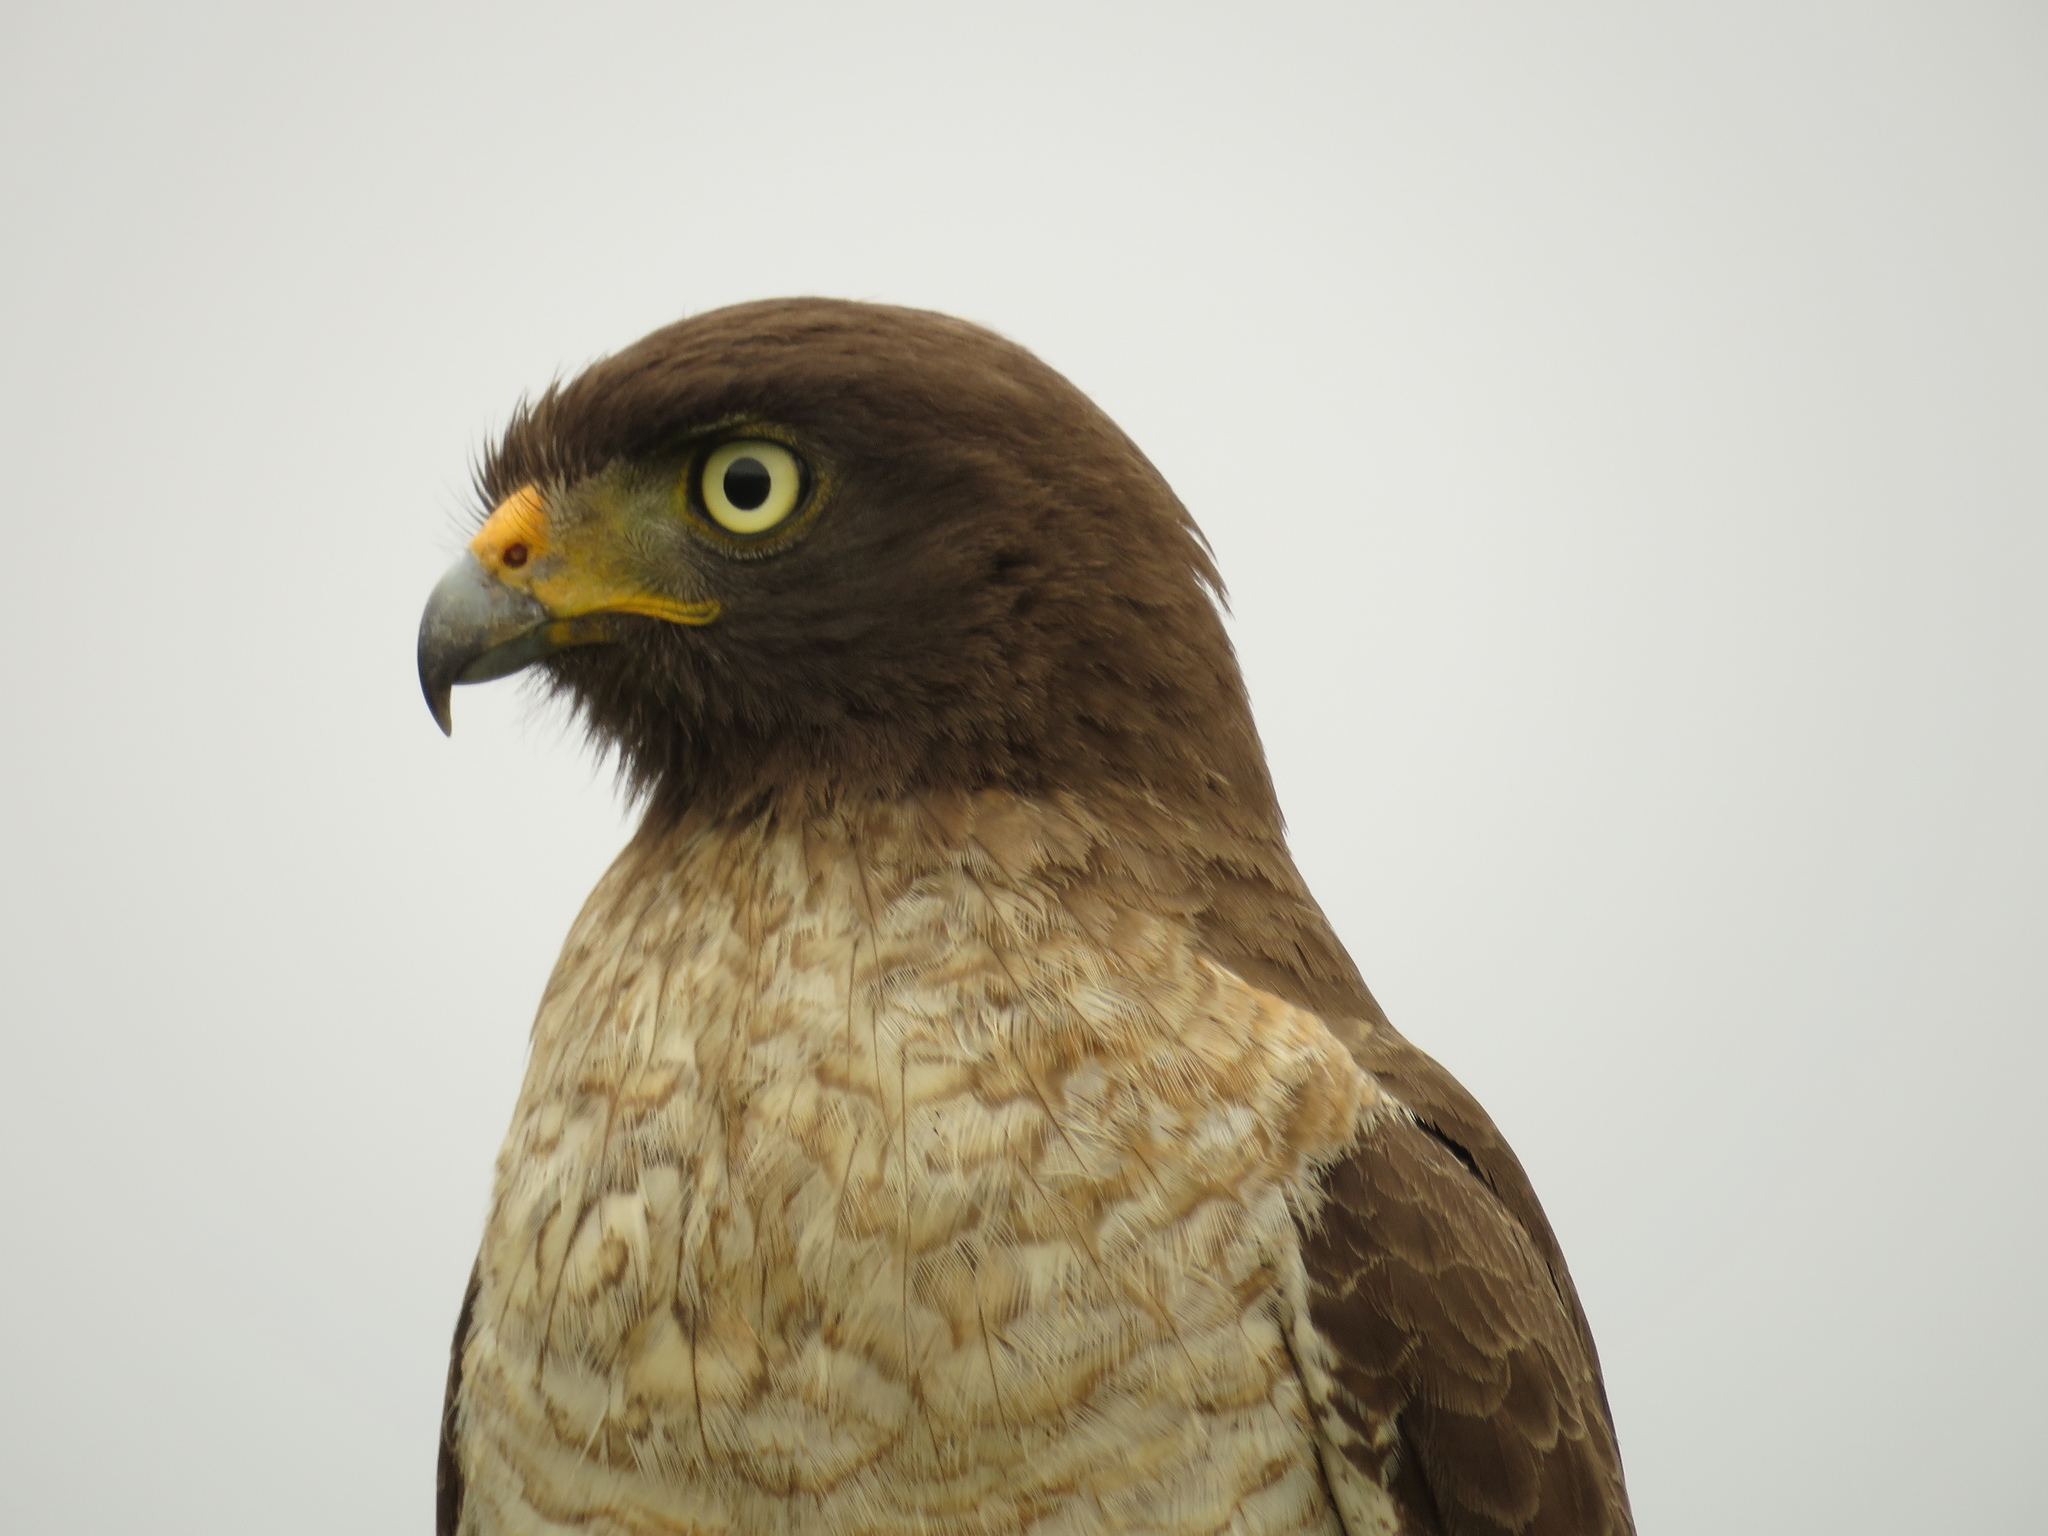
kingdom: Animalia
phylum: Chordata
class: Aves
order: Accipitriformes
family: Accipitridae
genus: Rupornis
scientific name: Rupornis magnirostris
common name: Roadside hawk
